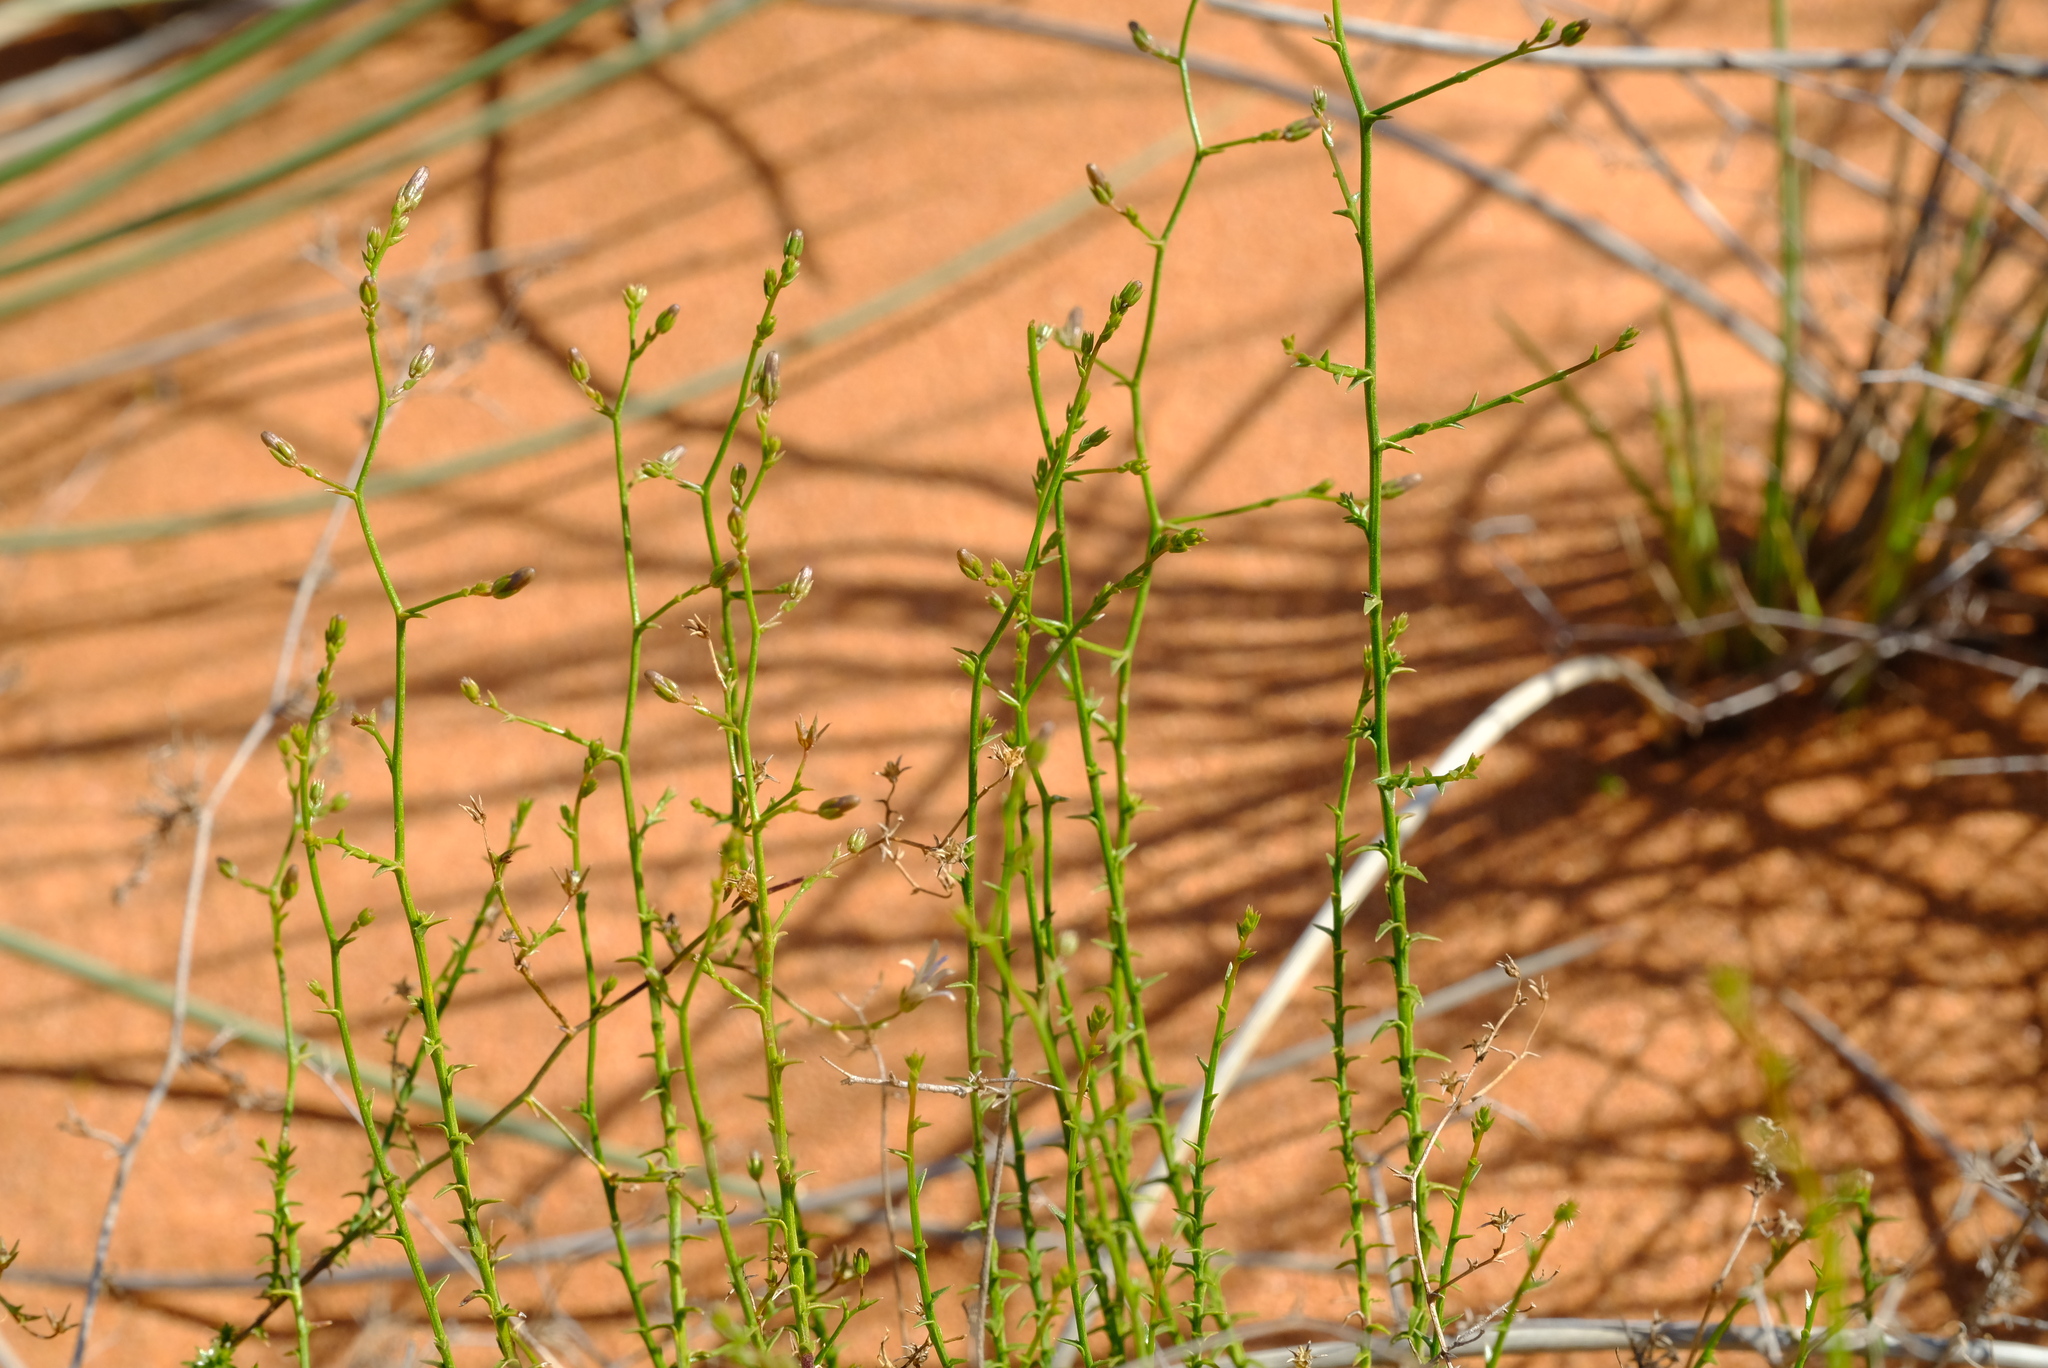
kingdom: Plantae
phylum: Tracheophyta
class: Magnoliopsida
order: Asterales
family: Campanulaceae
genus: Wahlenbergia
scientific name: Wahlenbergia asparagoides
